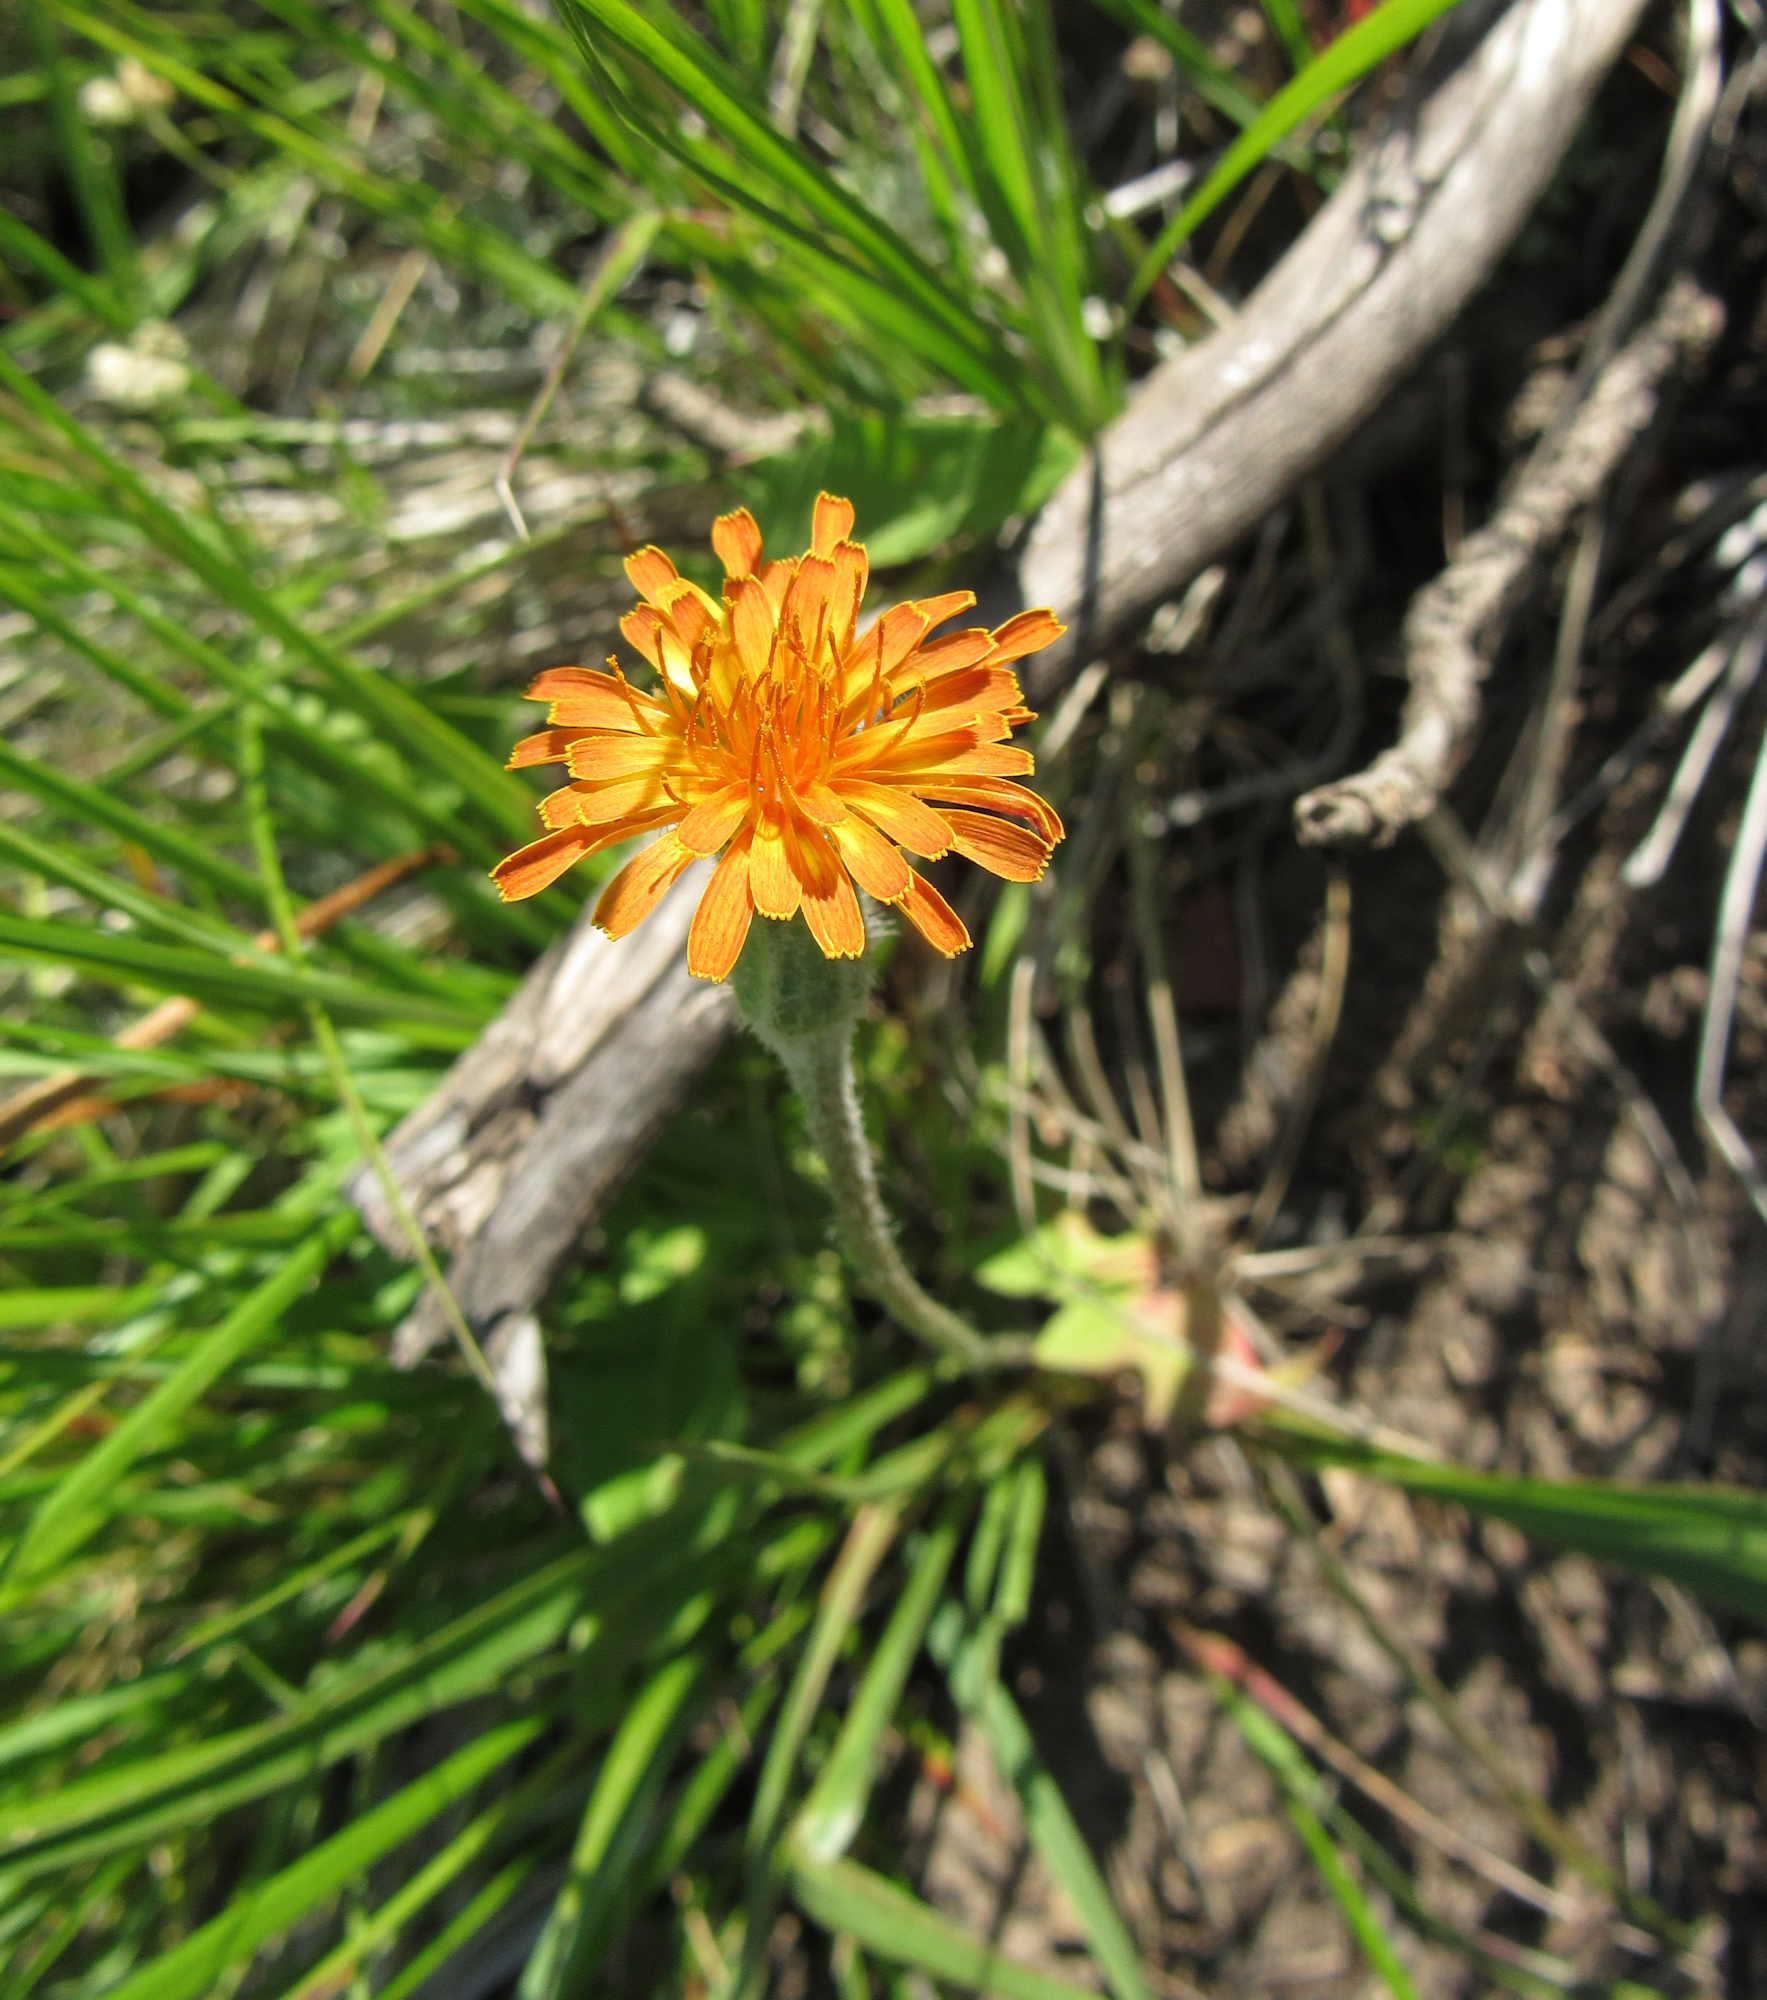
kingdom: Plantae
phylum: Tracheophyta
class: Magnoliopsida
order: Asterales
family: Asteraceae
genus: Agoseris
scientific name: Agoseris aurantiaca
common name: Mountain agoseris
